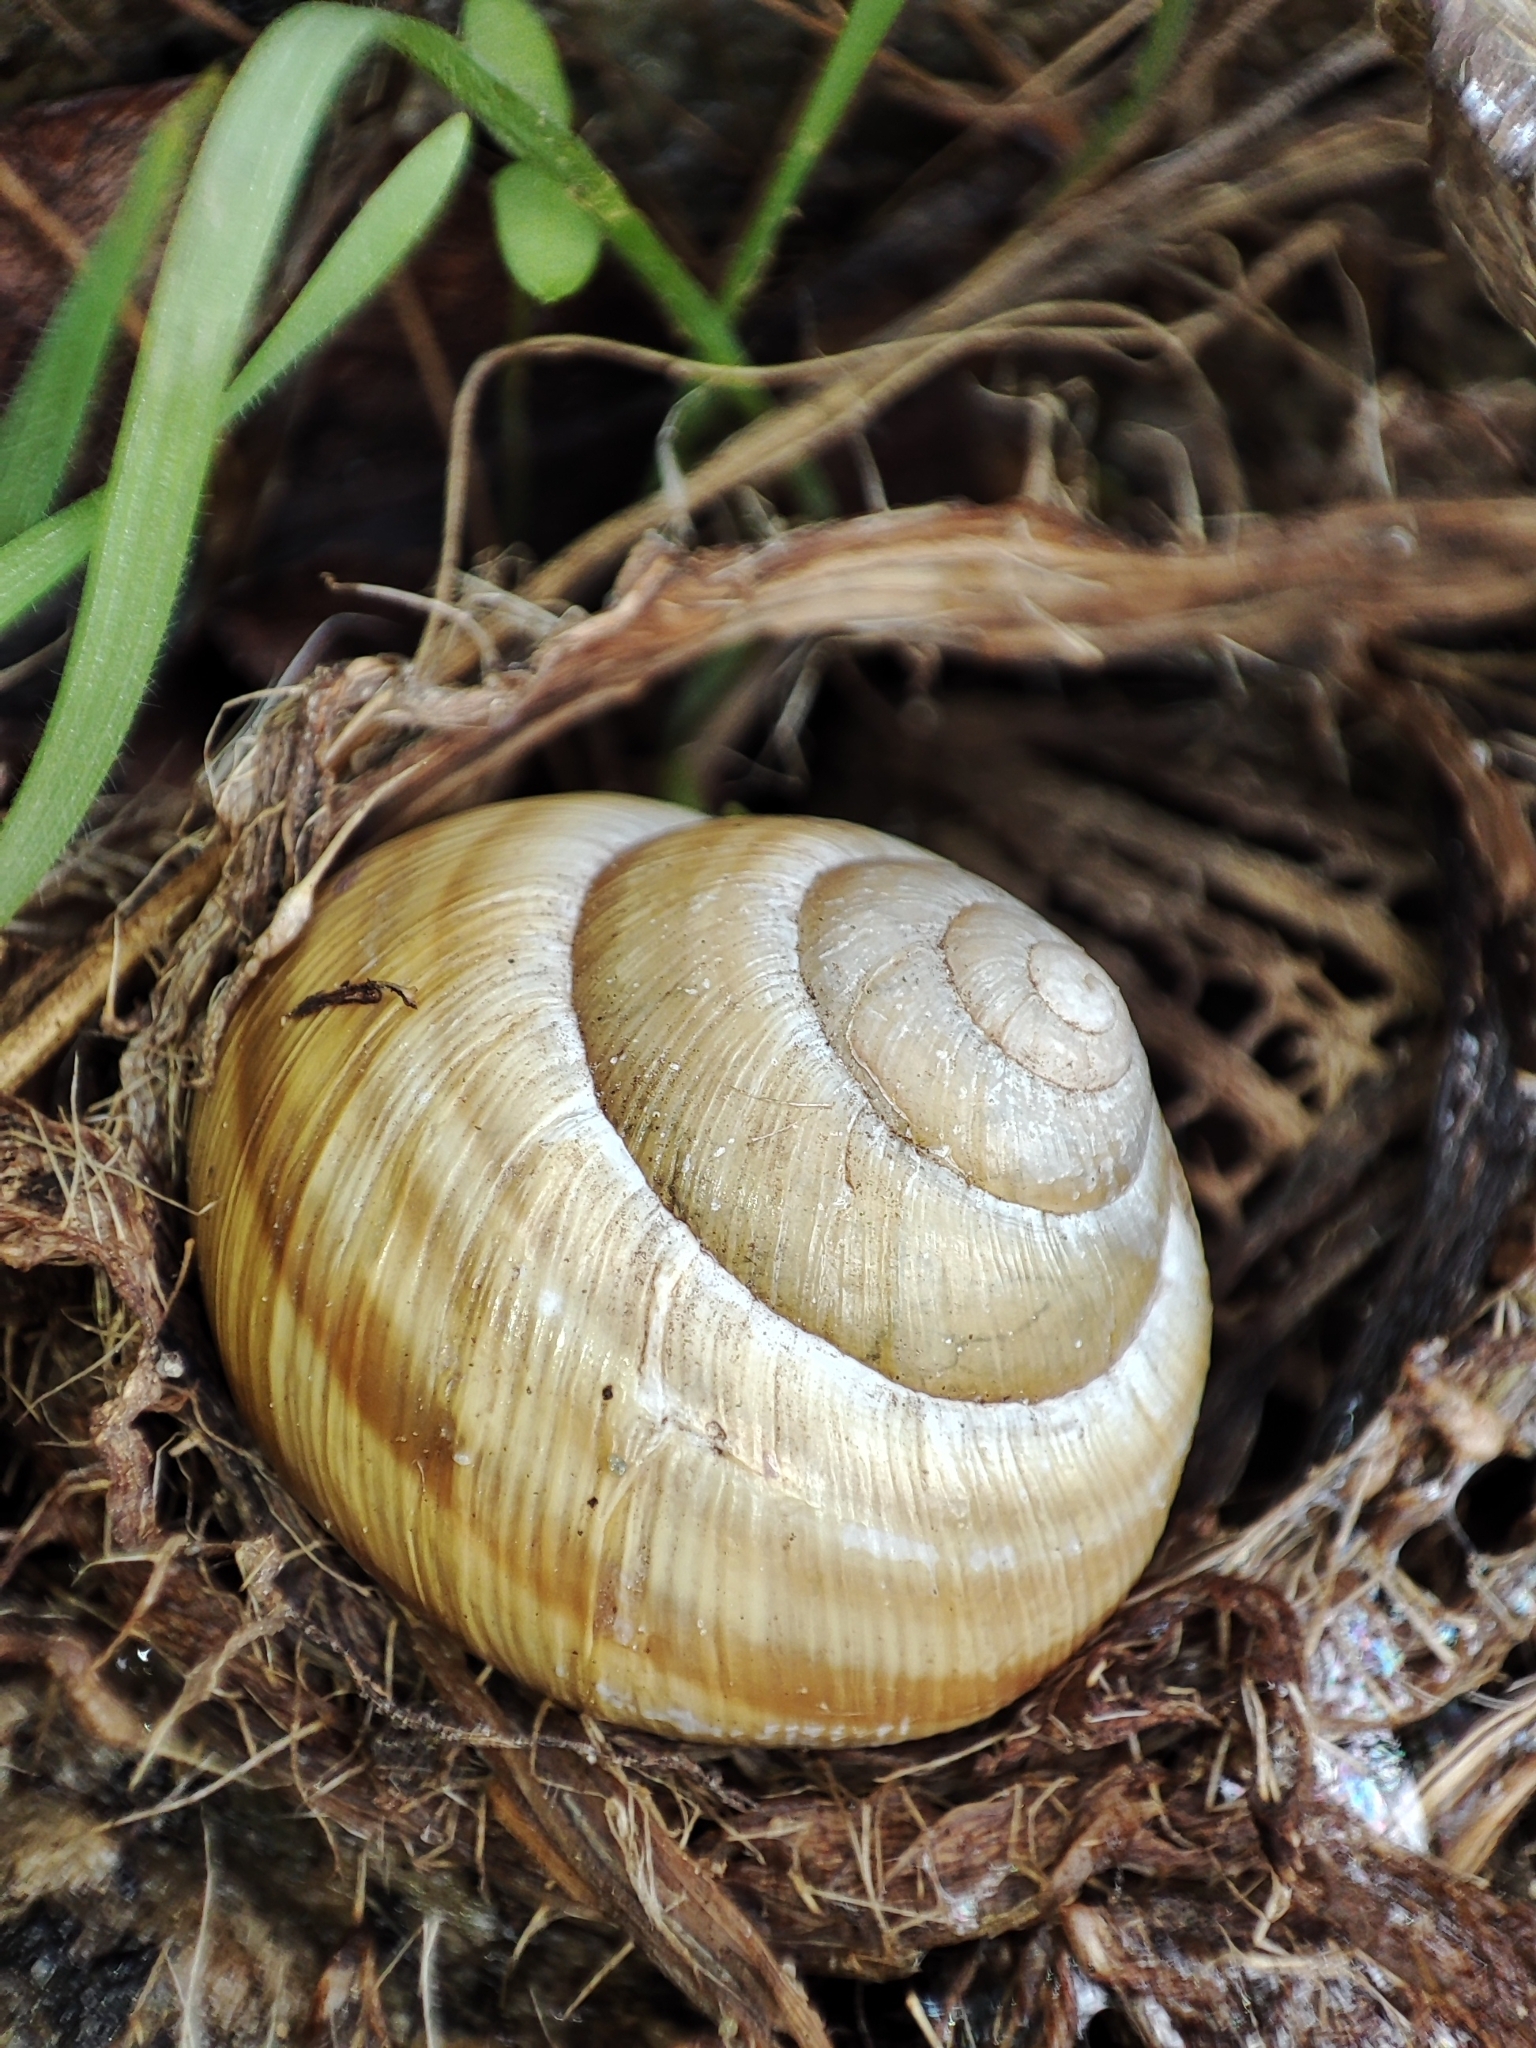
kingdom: Animalia
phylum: Mollusca
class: Gastropoda
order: Stylommatophora
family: Helicidae
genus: Caucasotachea
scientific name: Caucasotachea vindobonensis
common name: European helicid land snail
